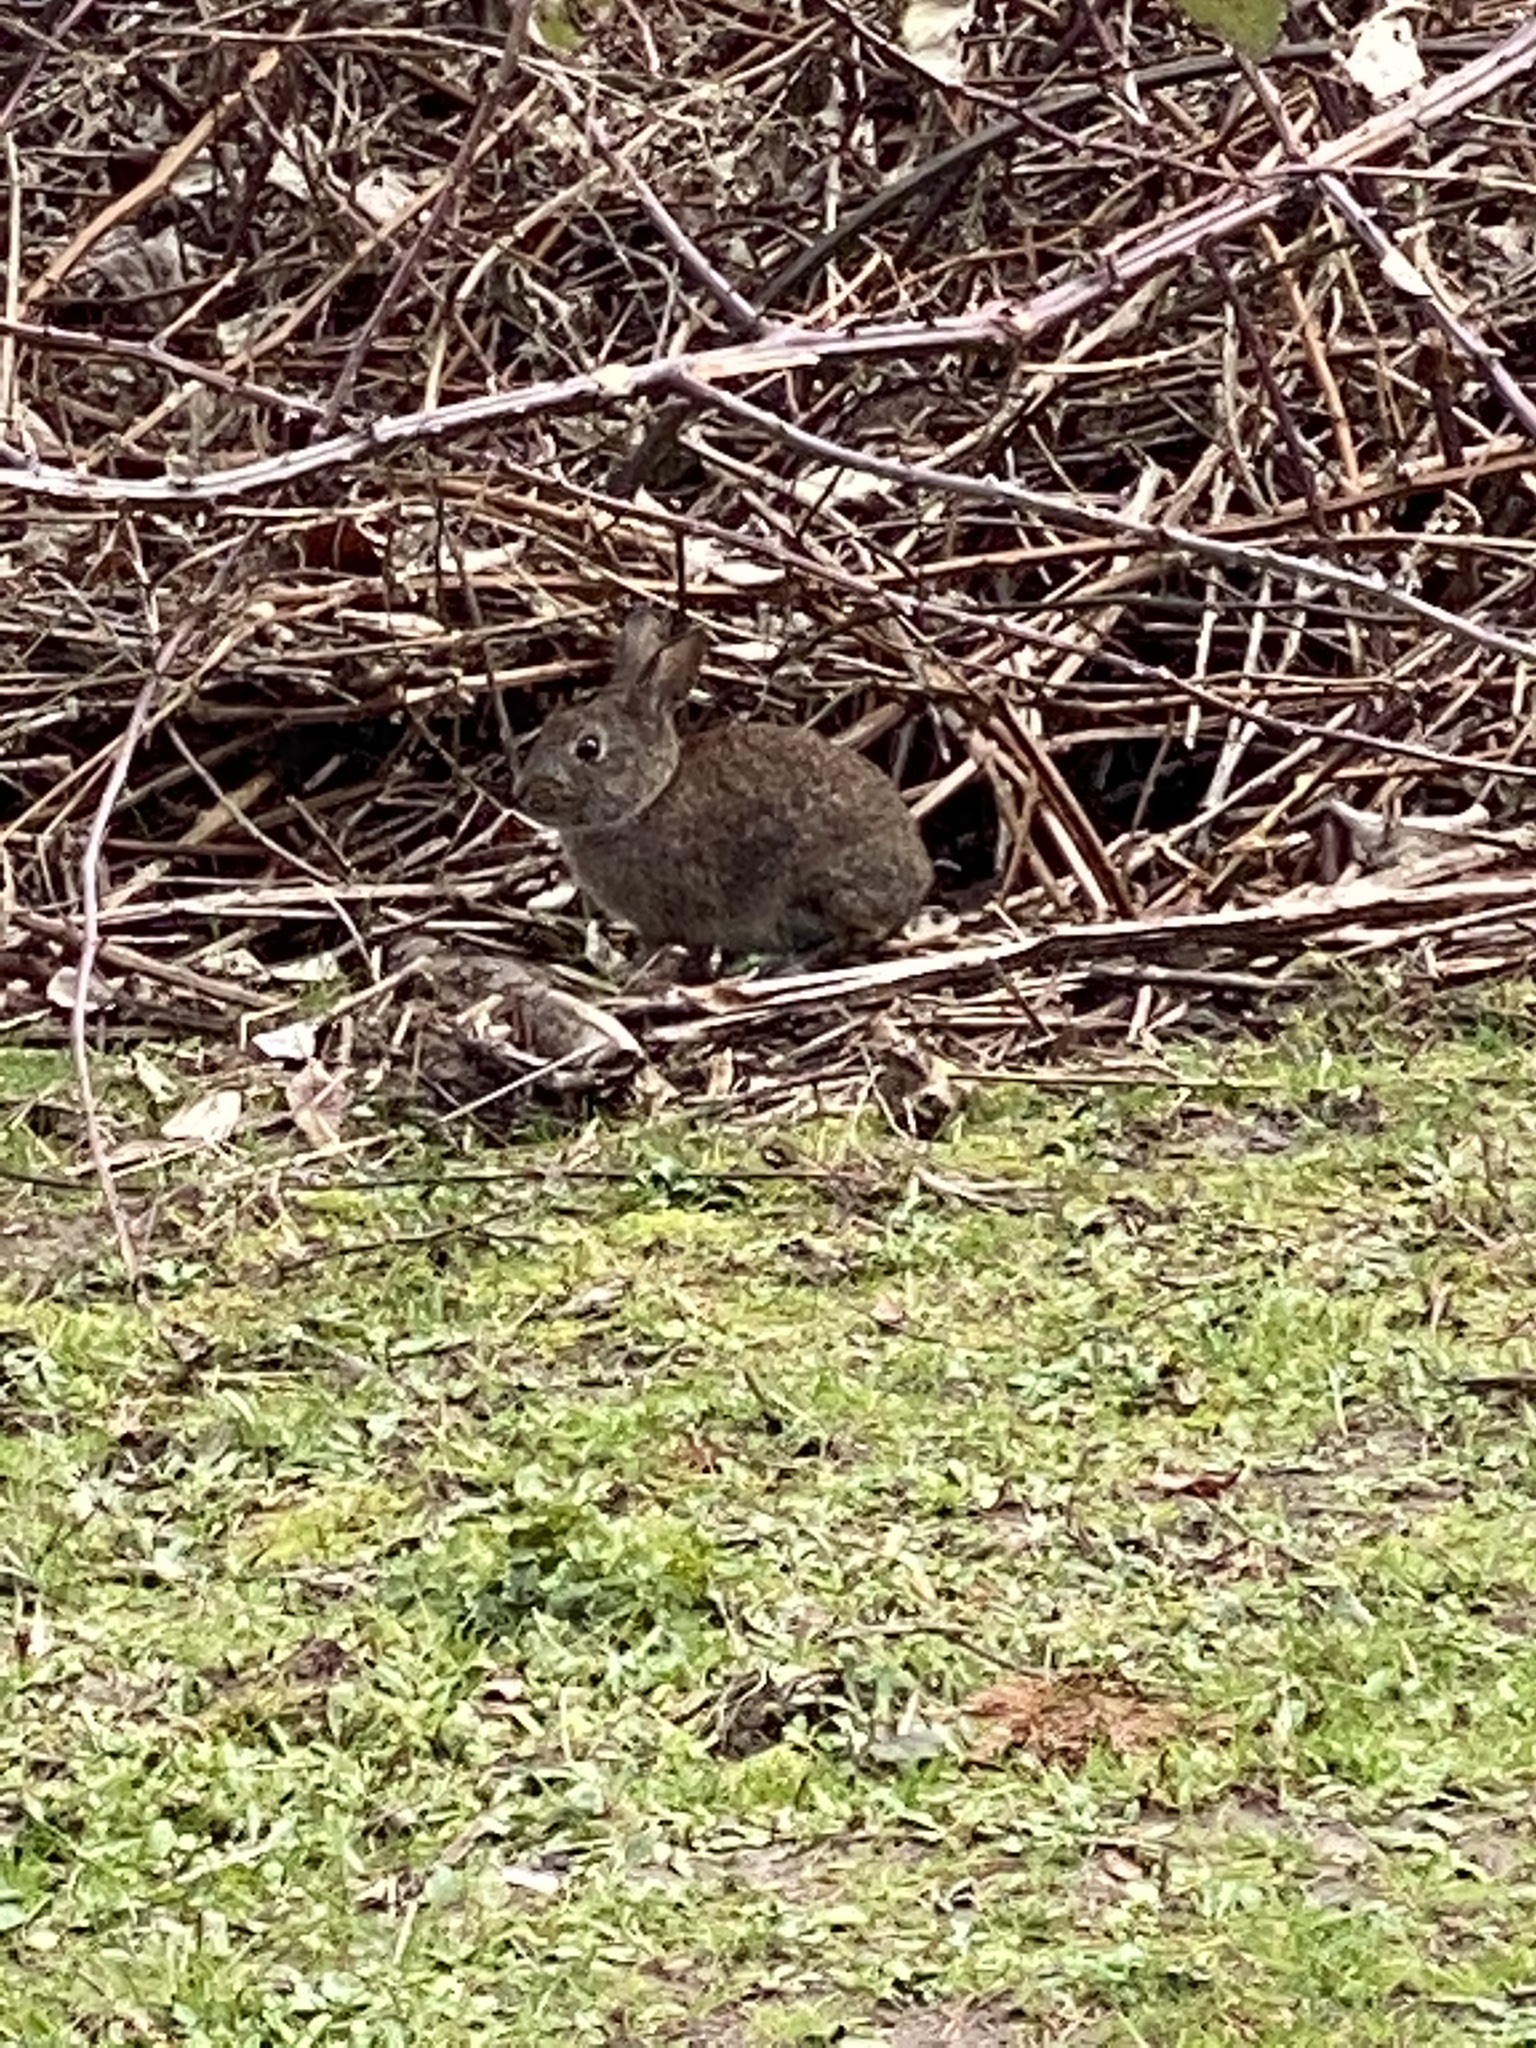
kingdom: Animalia
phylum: Chordata
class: Mammalia
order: Lagomorpha
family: Leporidae
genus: Sylvilagus
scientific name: Sylvilagus bachmani
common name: Brush rabbit
